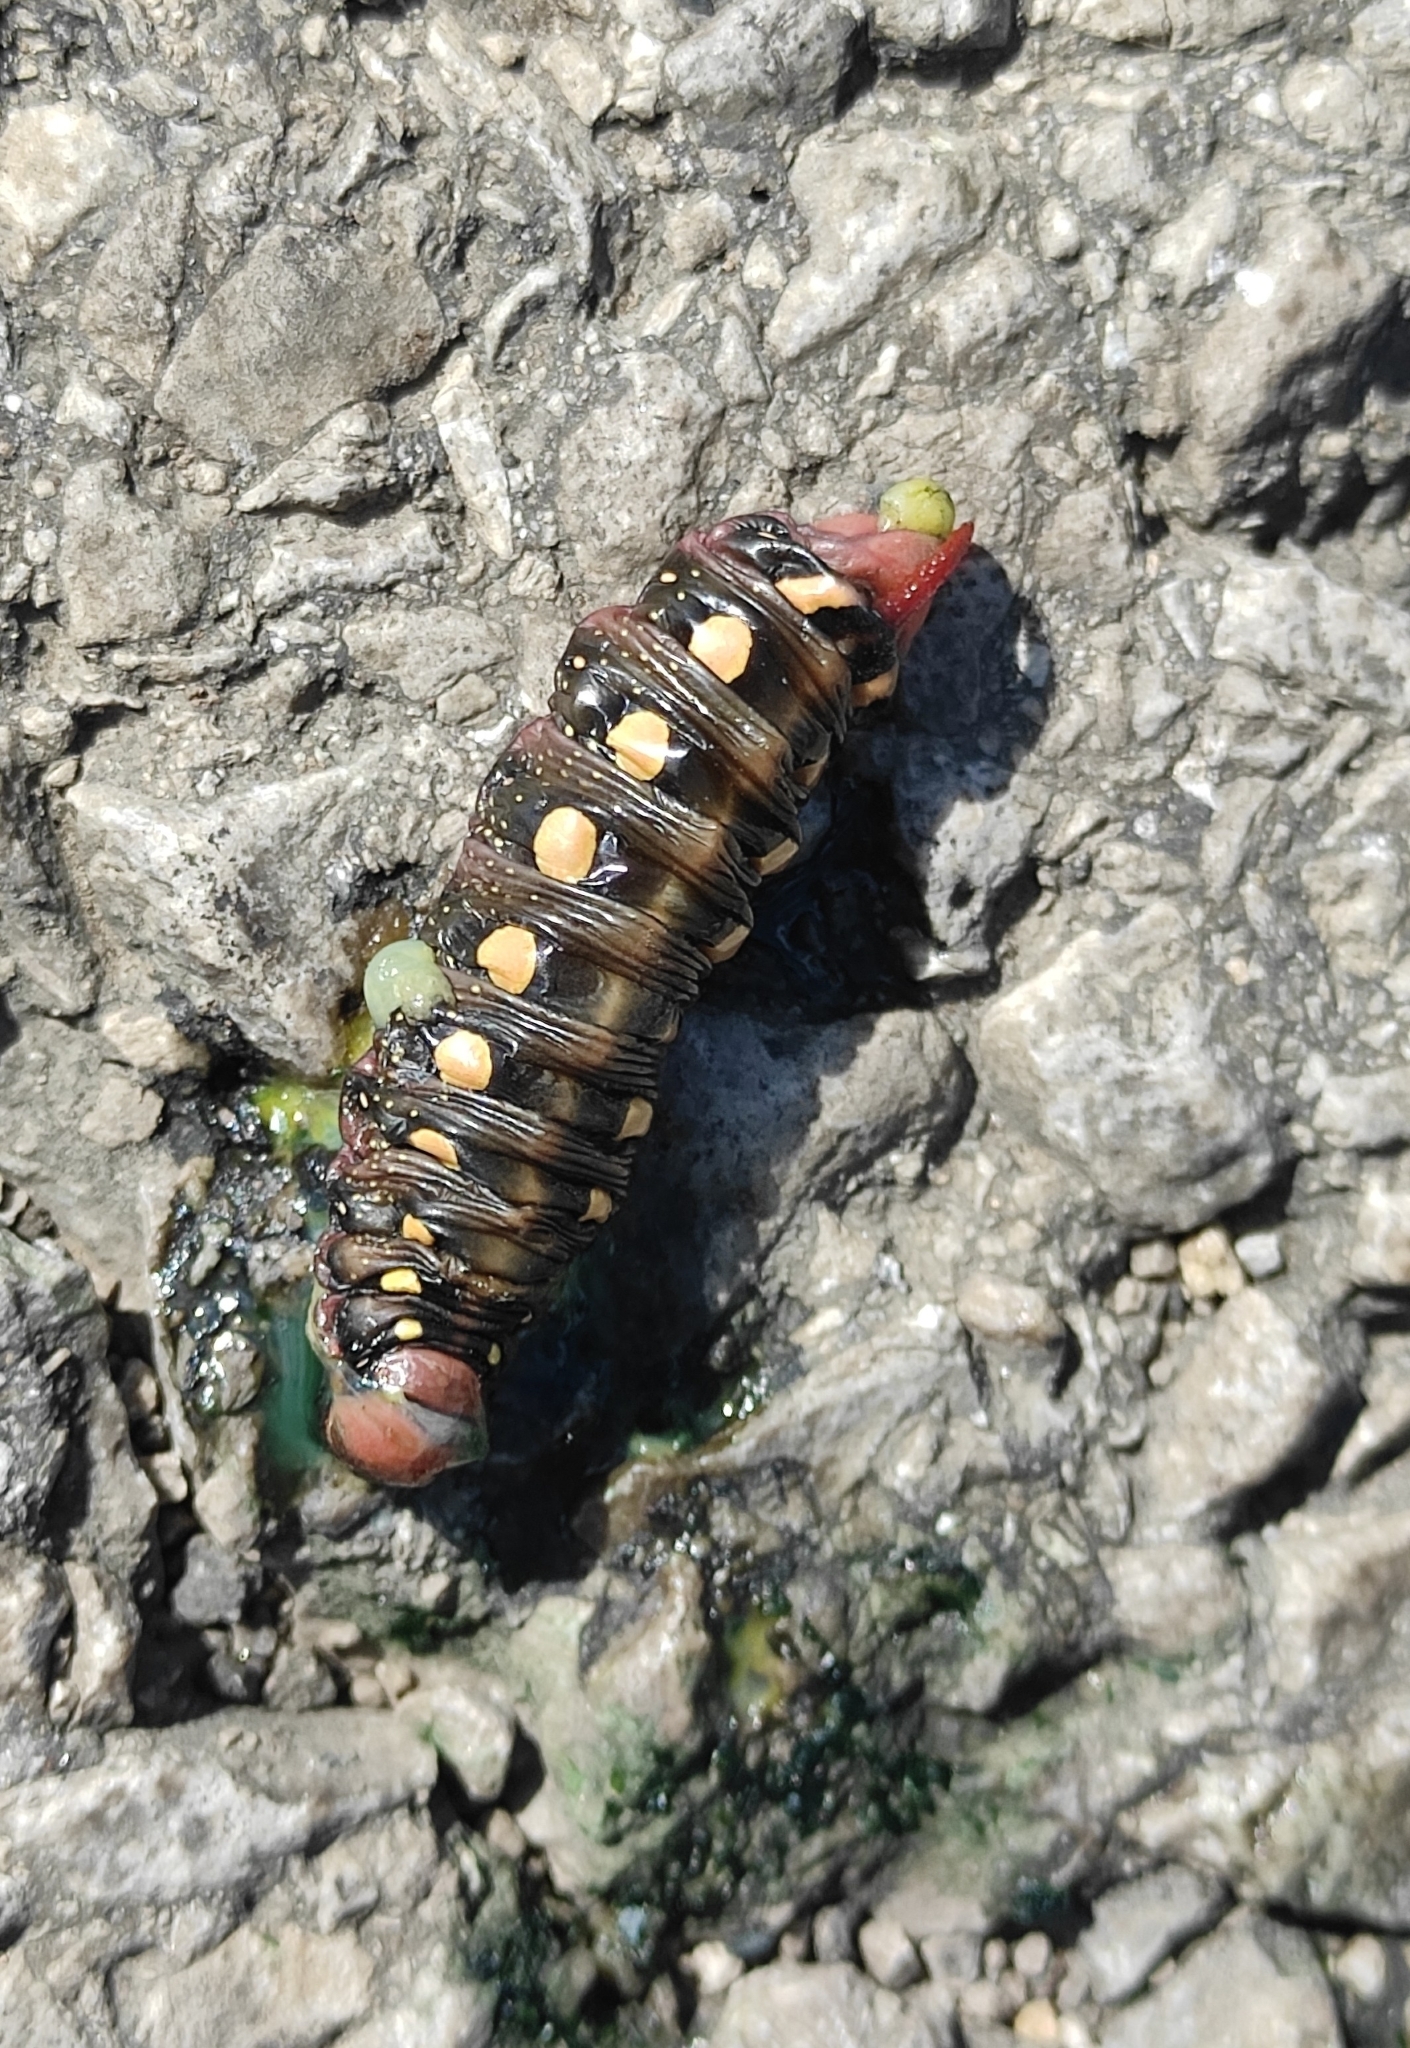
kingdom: Animalia
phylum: Arthropoda
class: Insecta
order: Lepidoptera
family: Sphingidae
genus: Hyles
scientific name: Hyles gallii
